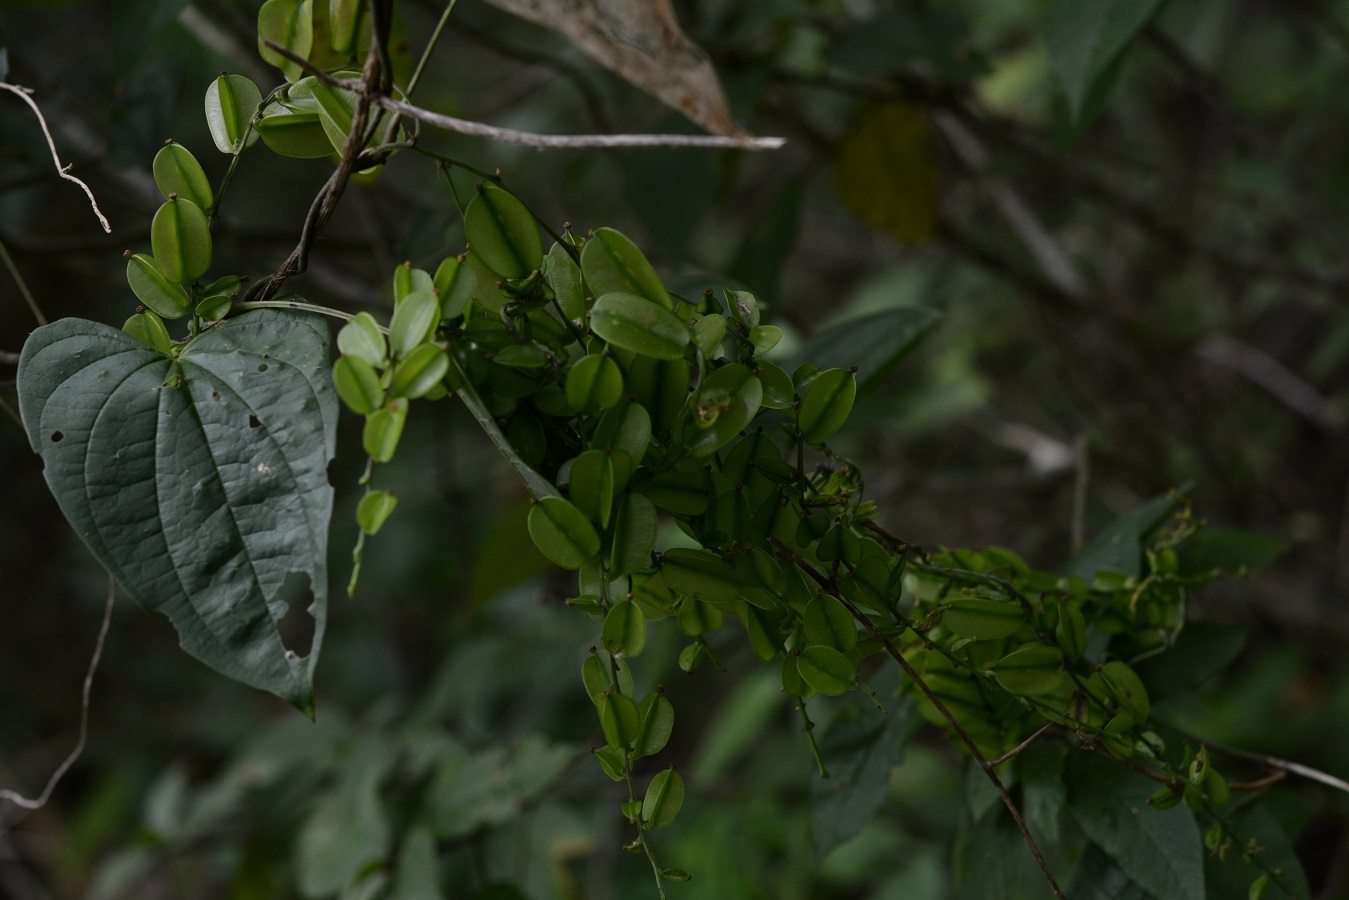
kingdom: Plantae
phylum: Tracheophyta
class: Liliopsida
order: Dioscoreales
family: Dioscoreaceae
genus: Dioscorea
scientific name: Dioscorea spiculiflora
